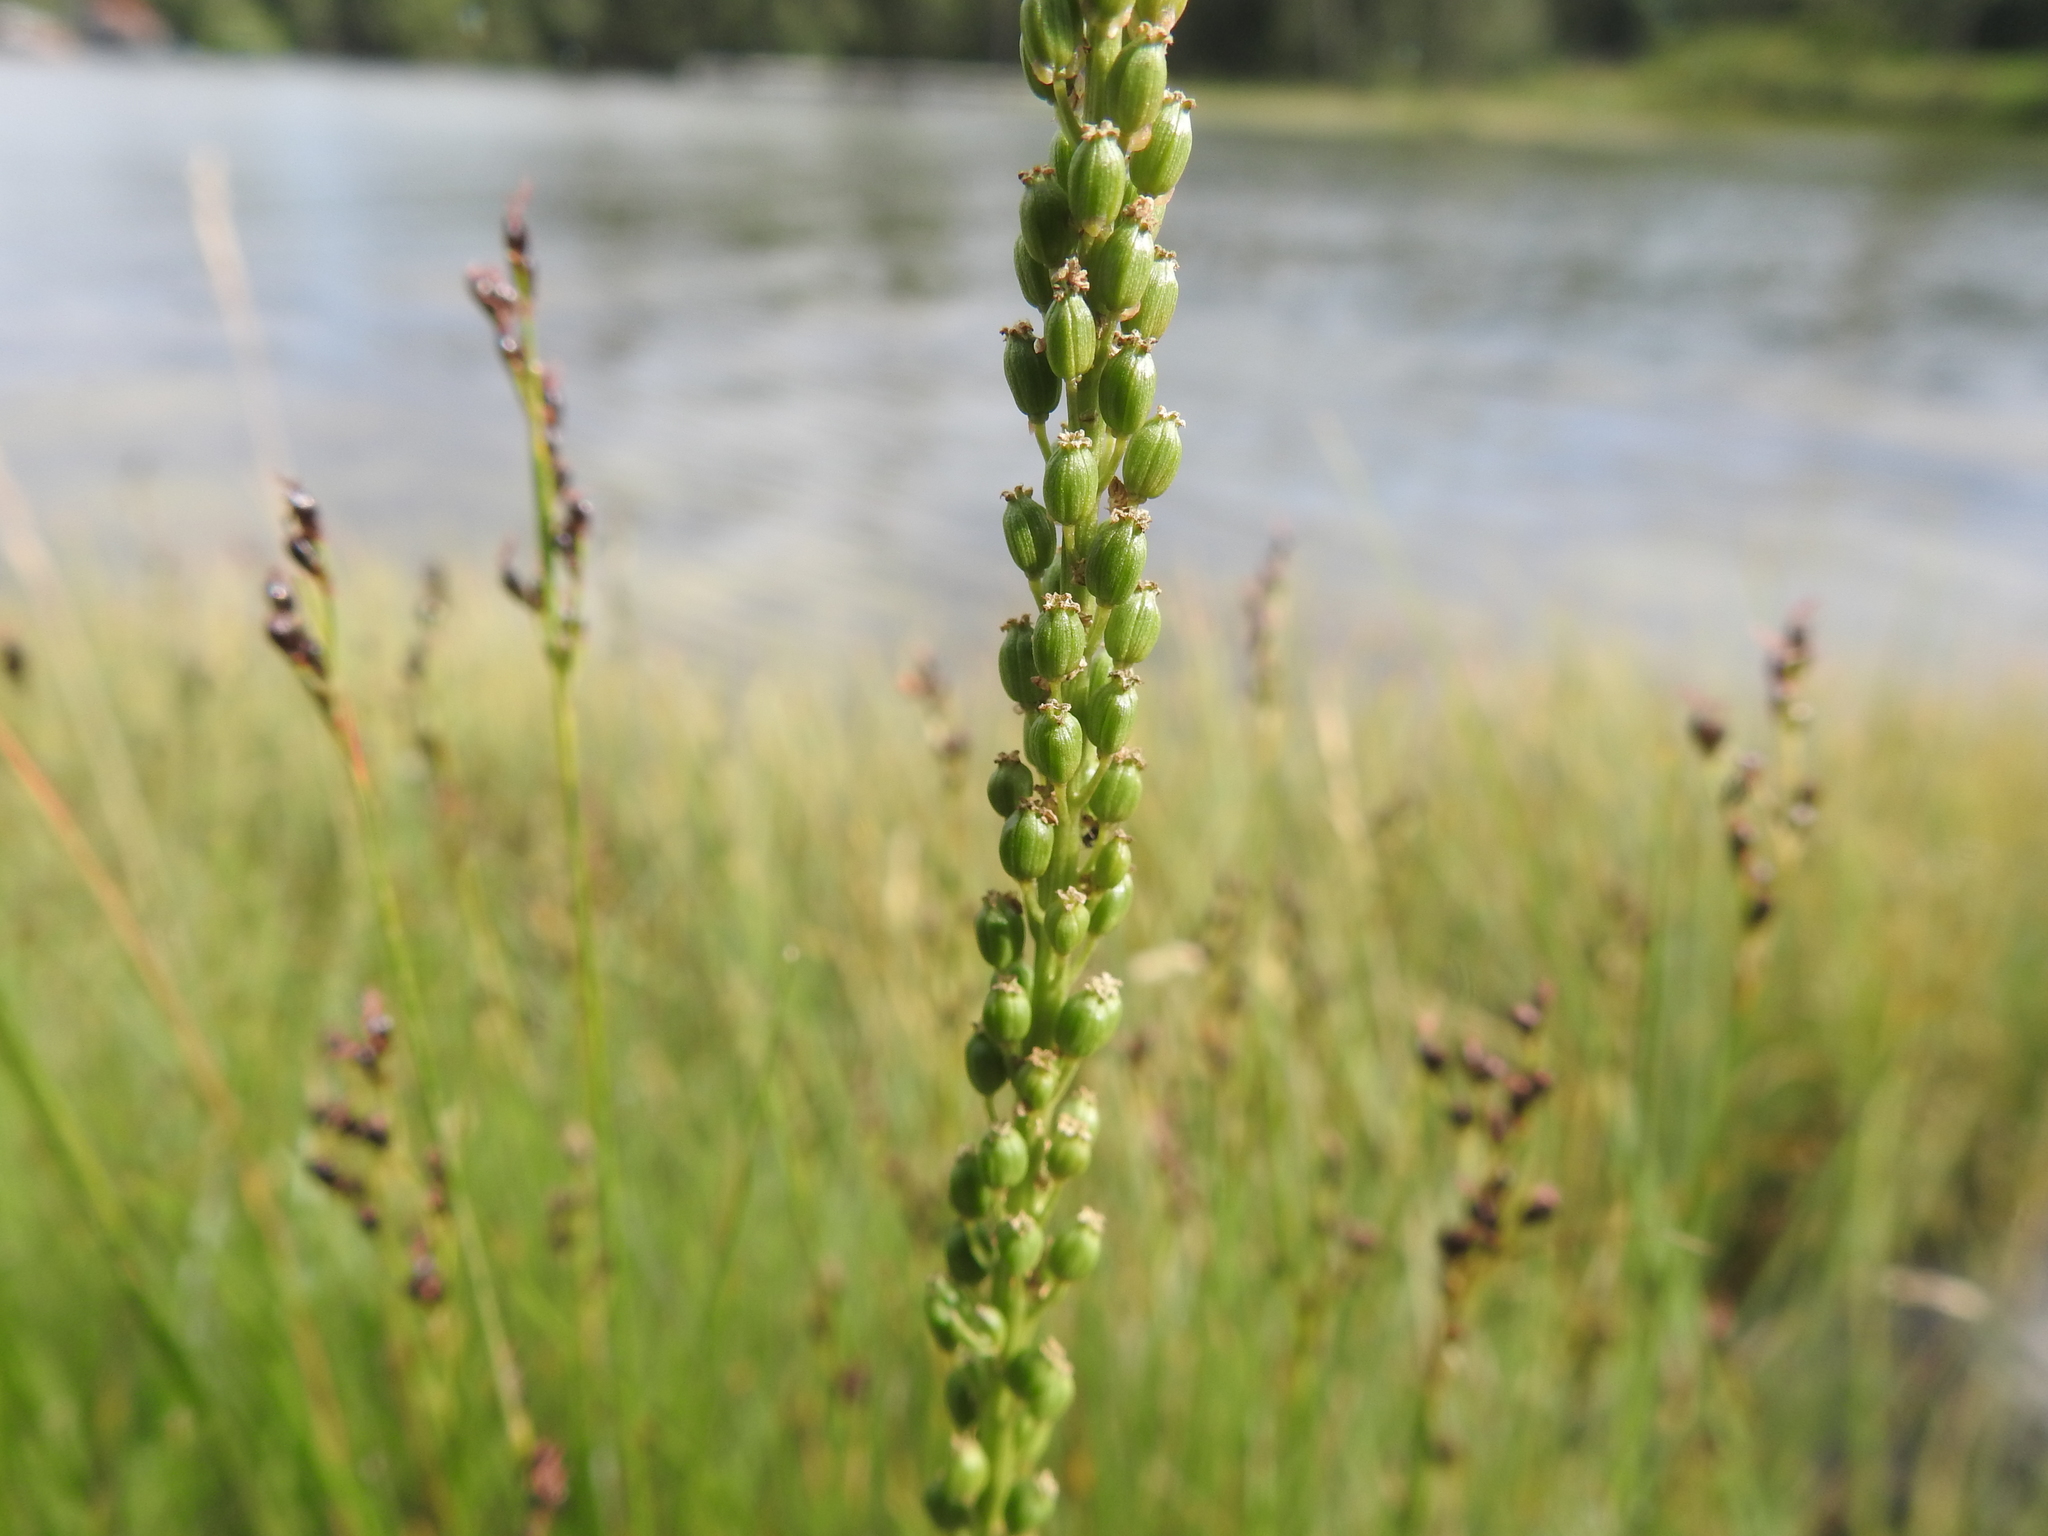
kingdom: Plantae
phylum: Tracheophyta
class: Liliopsida
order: Alismatales
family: Juncaginaceae
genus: Triglochin
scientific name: Triglochin maritima
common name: Sea arrowgrass
